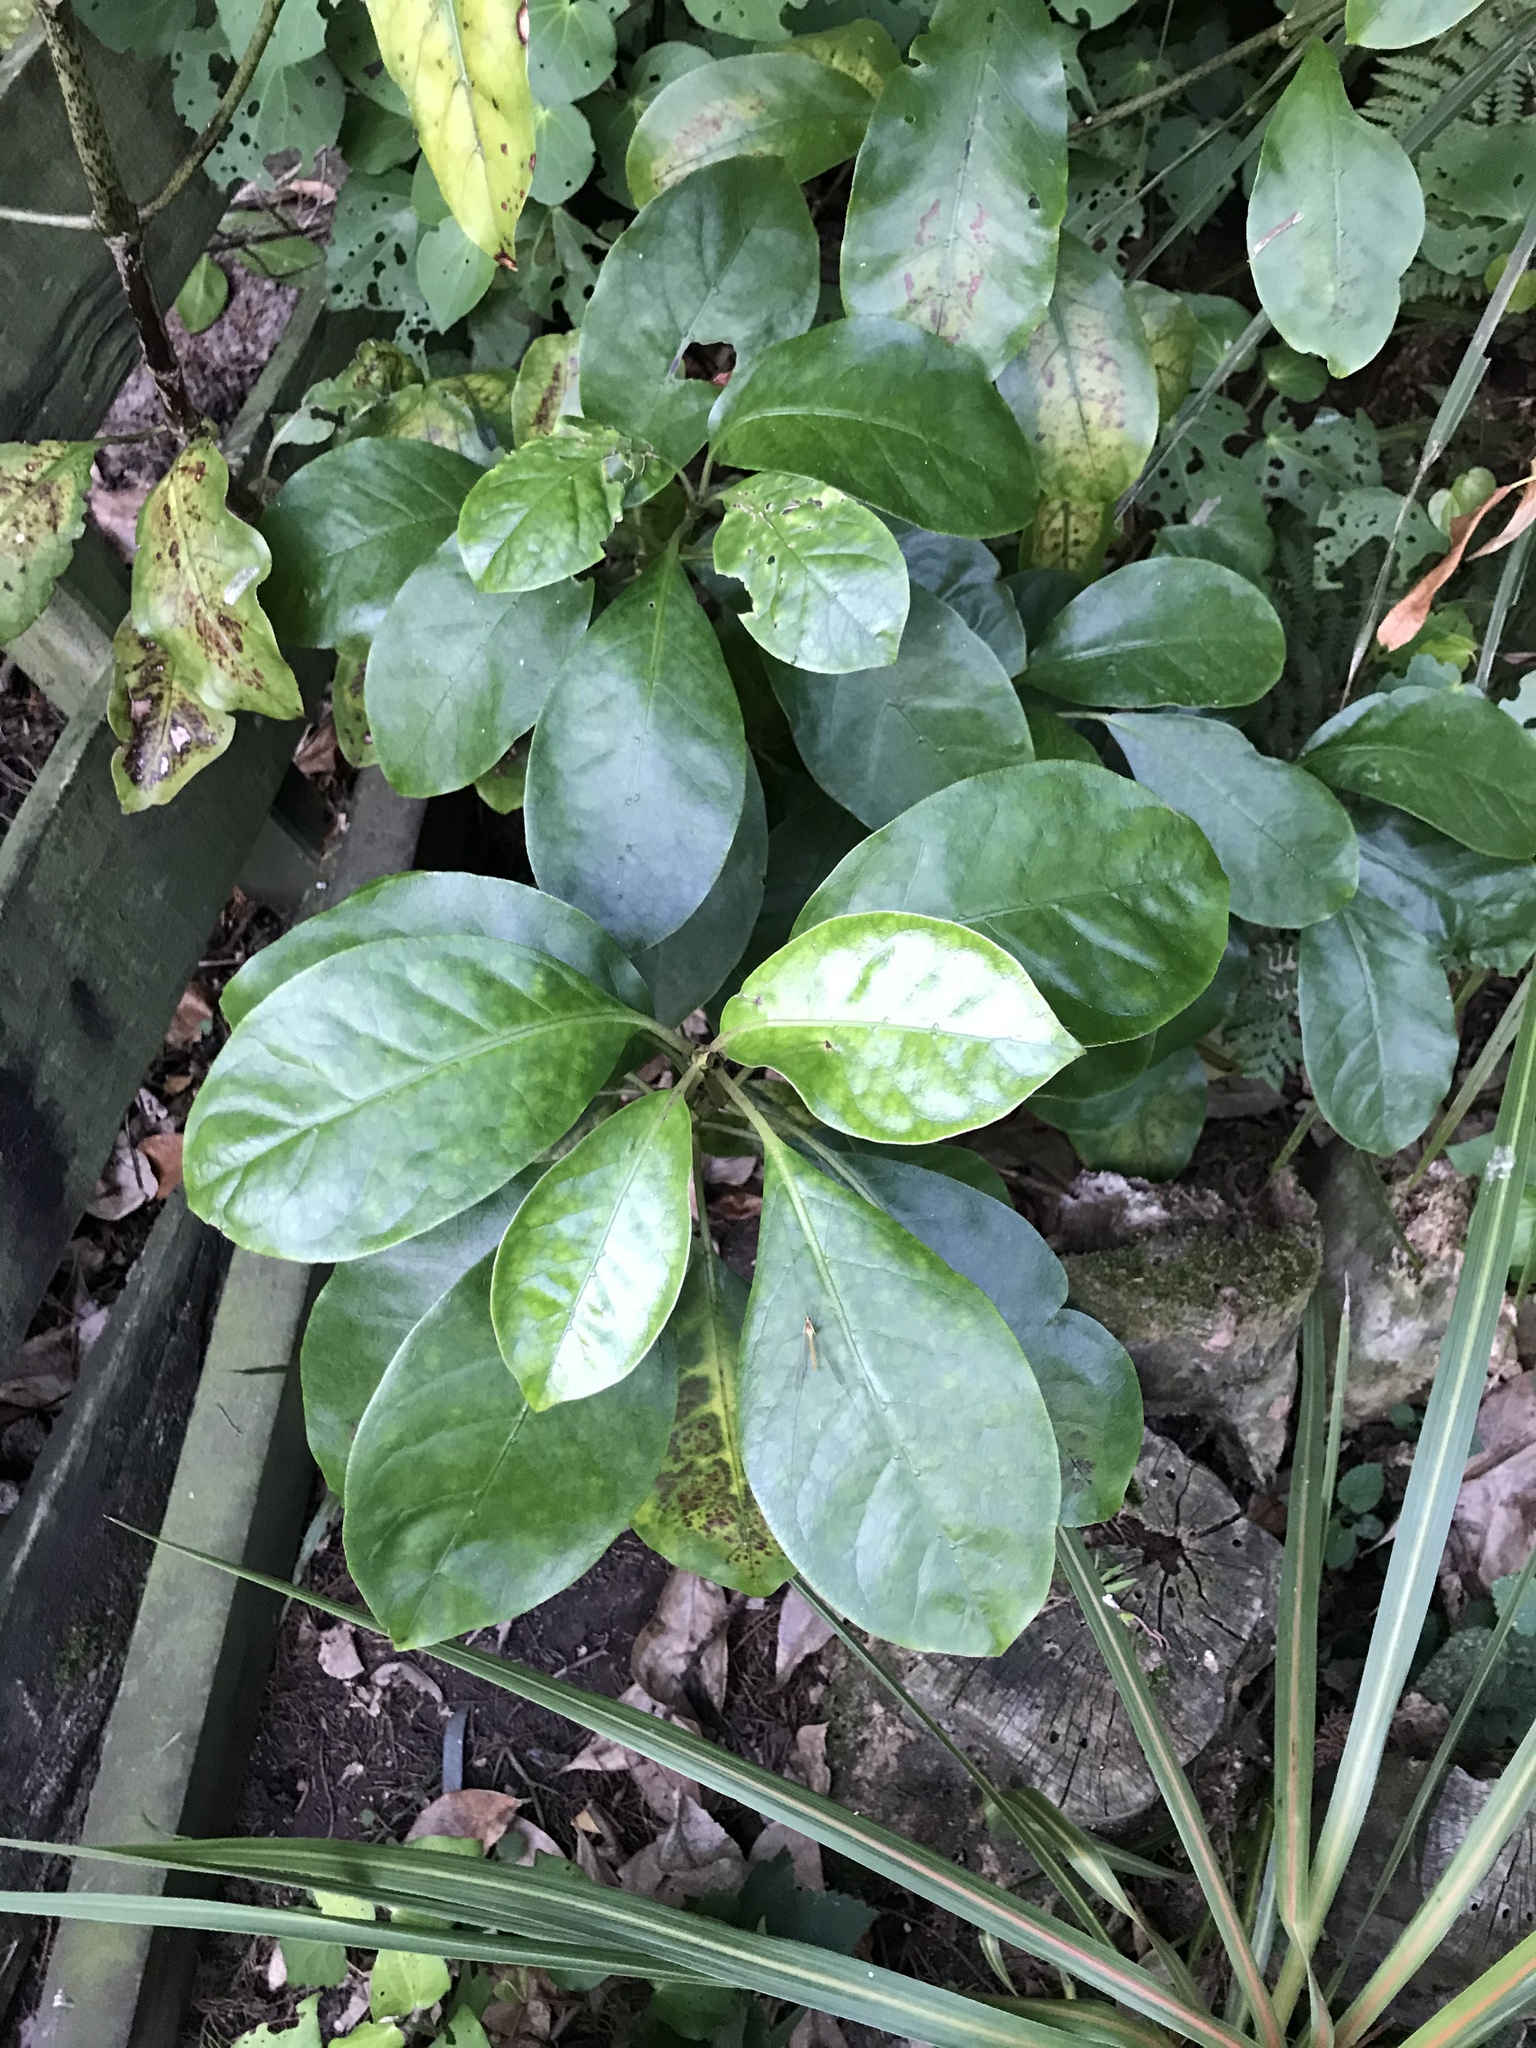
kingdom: Plantae
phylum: Tracheophyta
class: Magnoliopsida
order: Gentianales
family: Rubiaceae
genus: Coprosma
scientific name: Coprosma autumnalis
